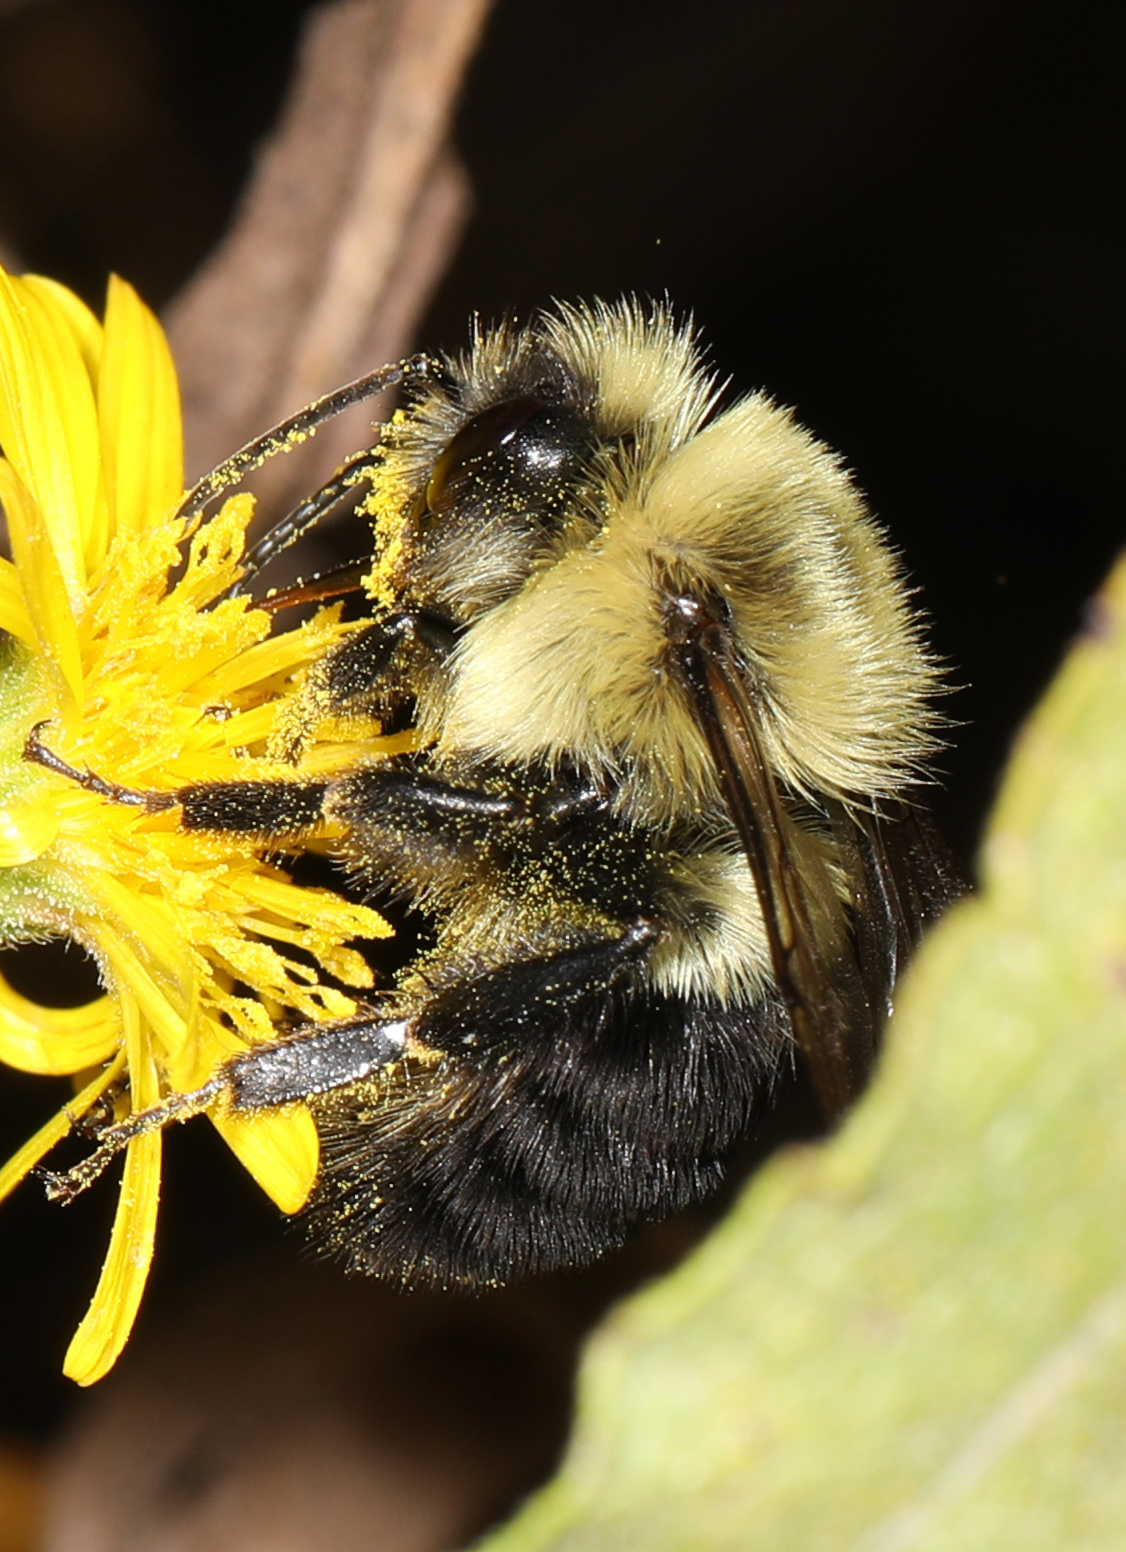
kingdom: Animalia
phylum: Arthropoda
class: Insecta
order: Hymenoptera
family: Apidae
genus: Bombus
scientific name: Bombus impatiens
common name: Common eastern bumble bee
